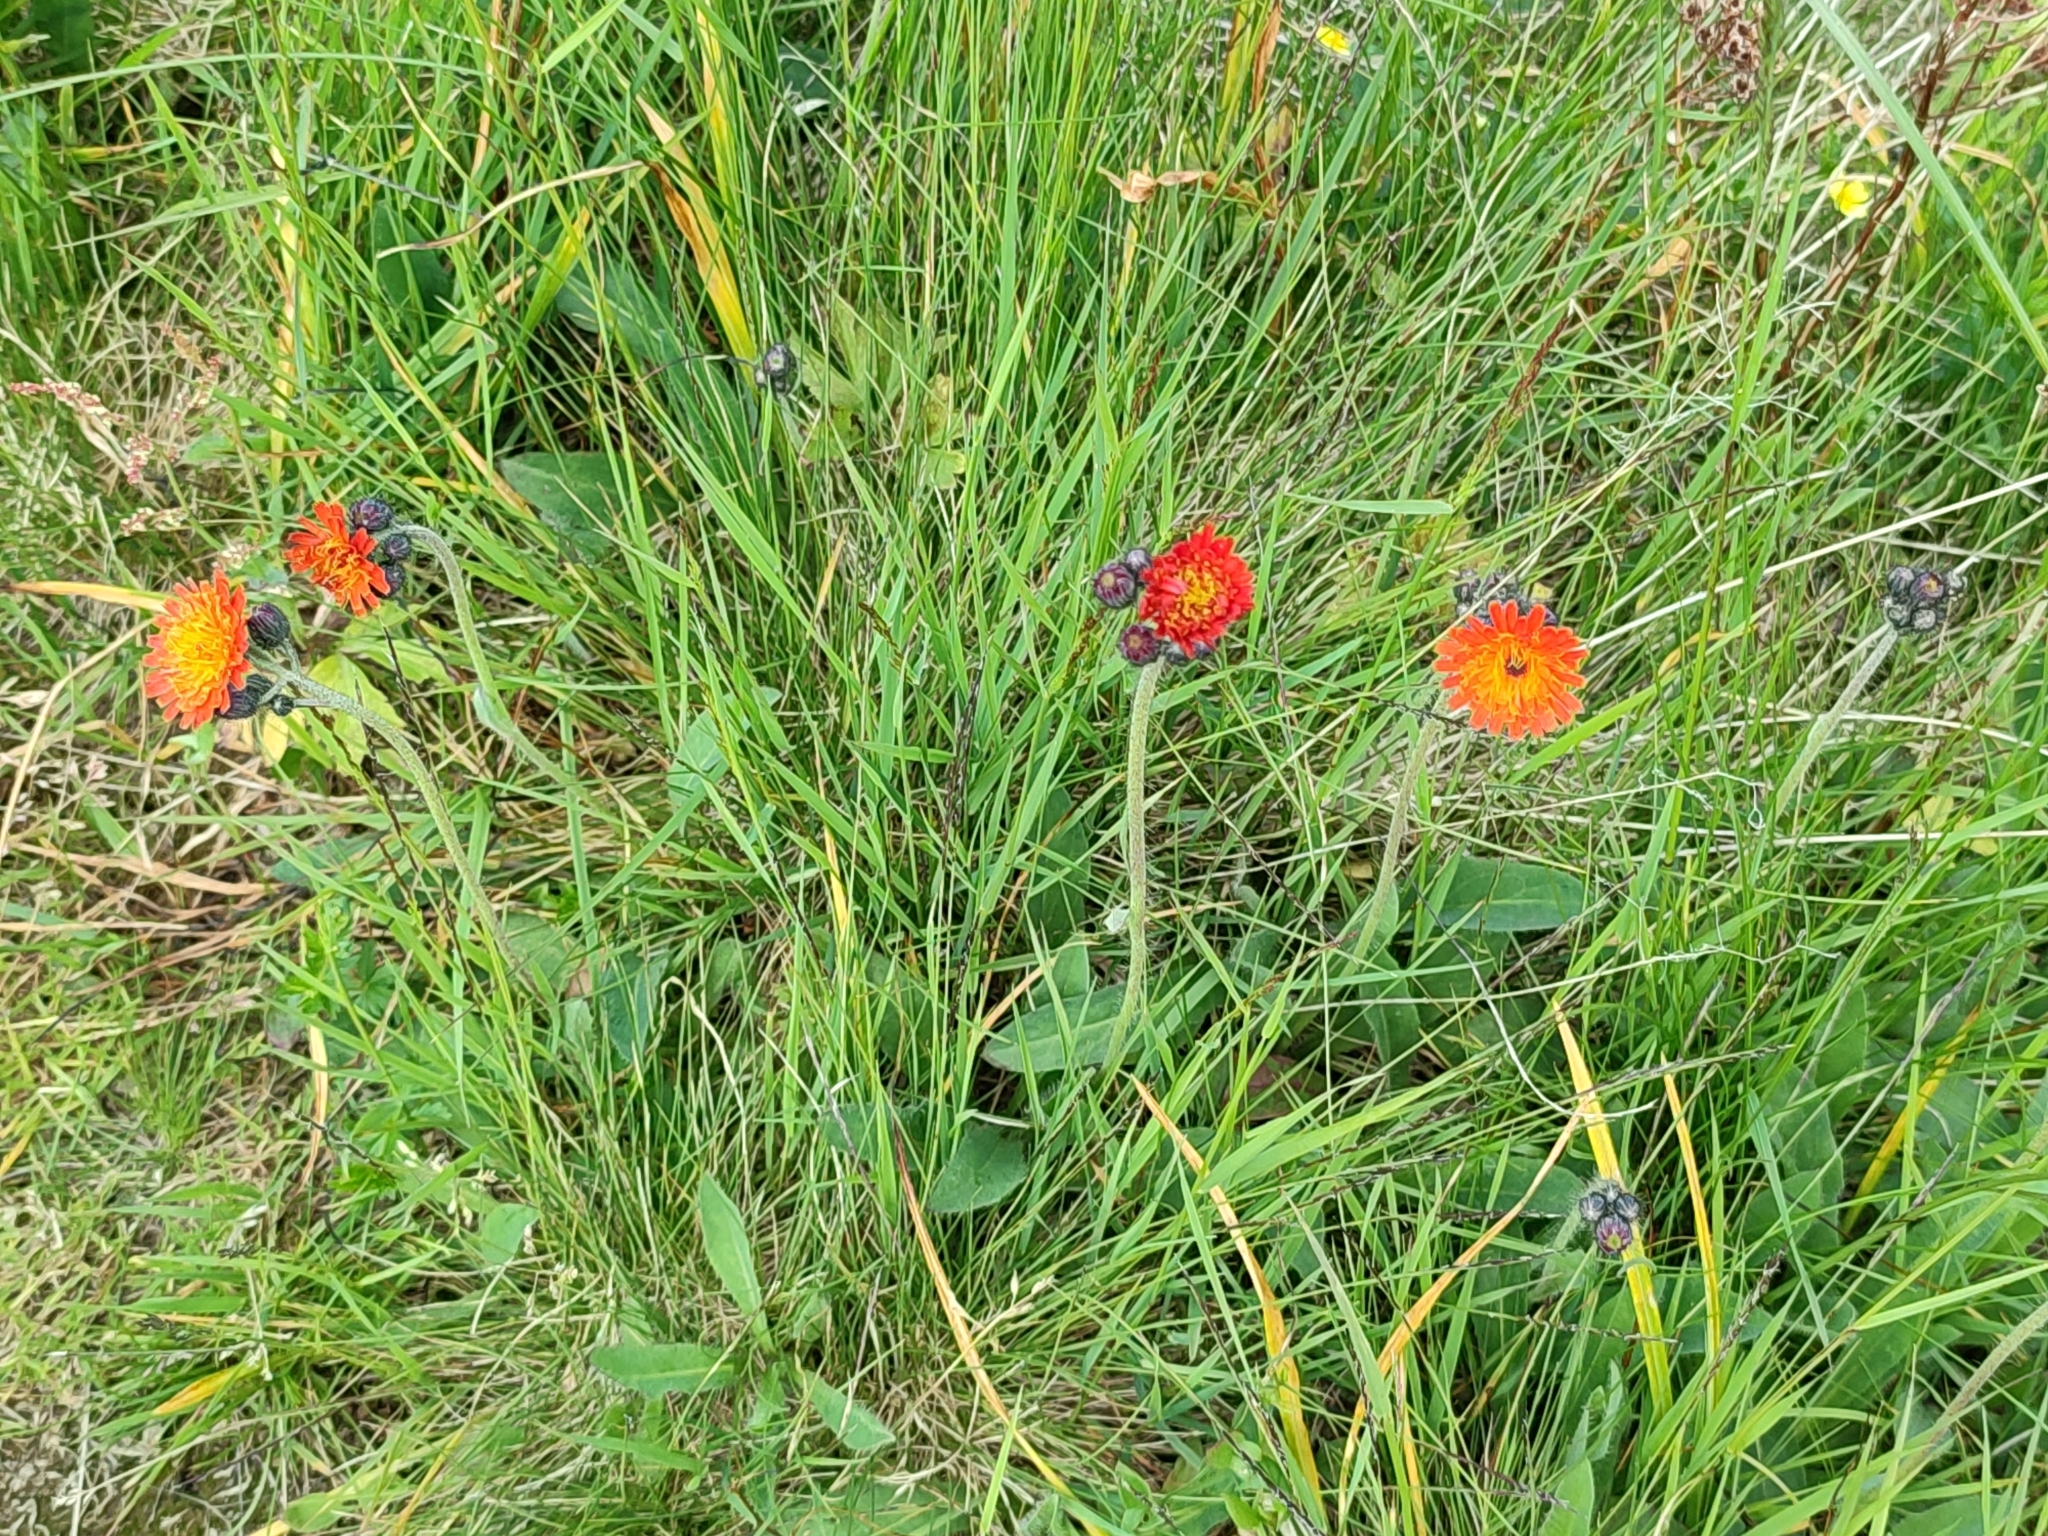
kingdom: Plantae
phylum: Tracheophyta
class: Magnoliopsida
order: Asterales
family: Asteraceae
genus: Pilosella
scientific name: Pilosella aurantiaca
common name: Fox-and-cubs
